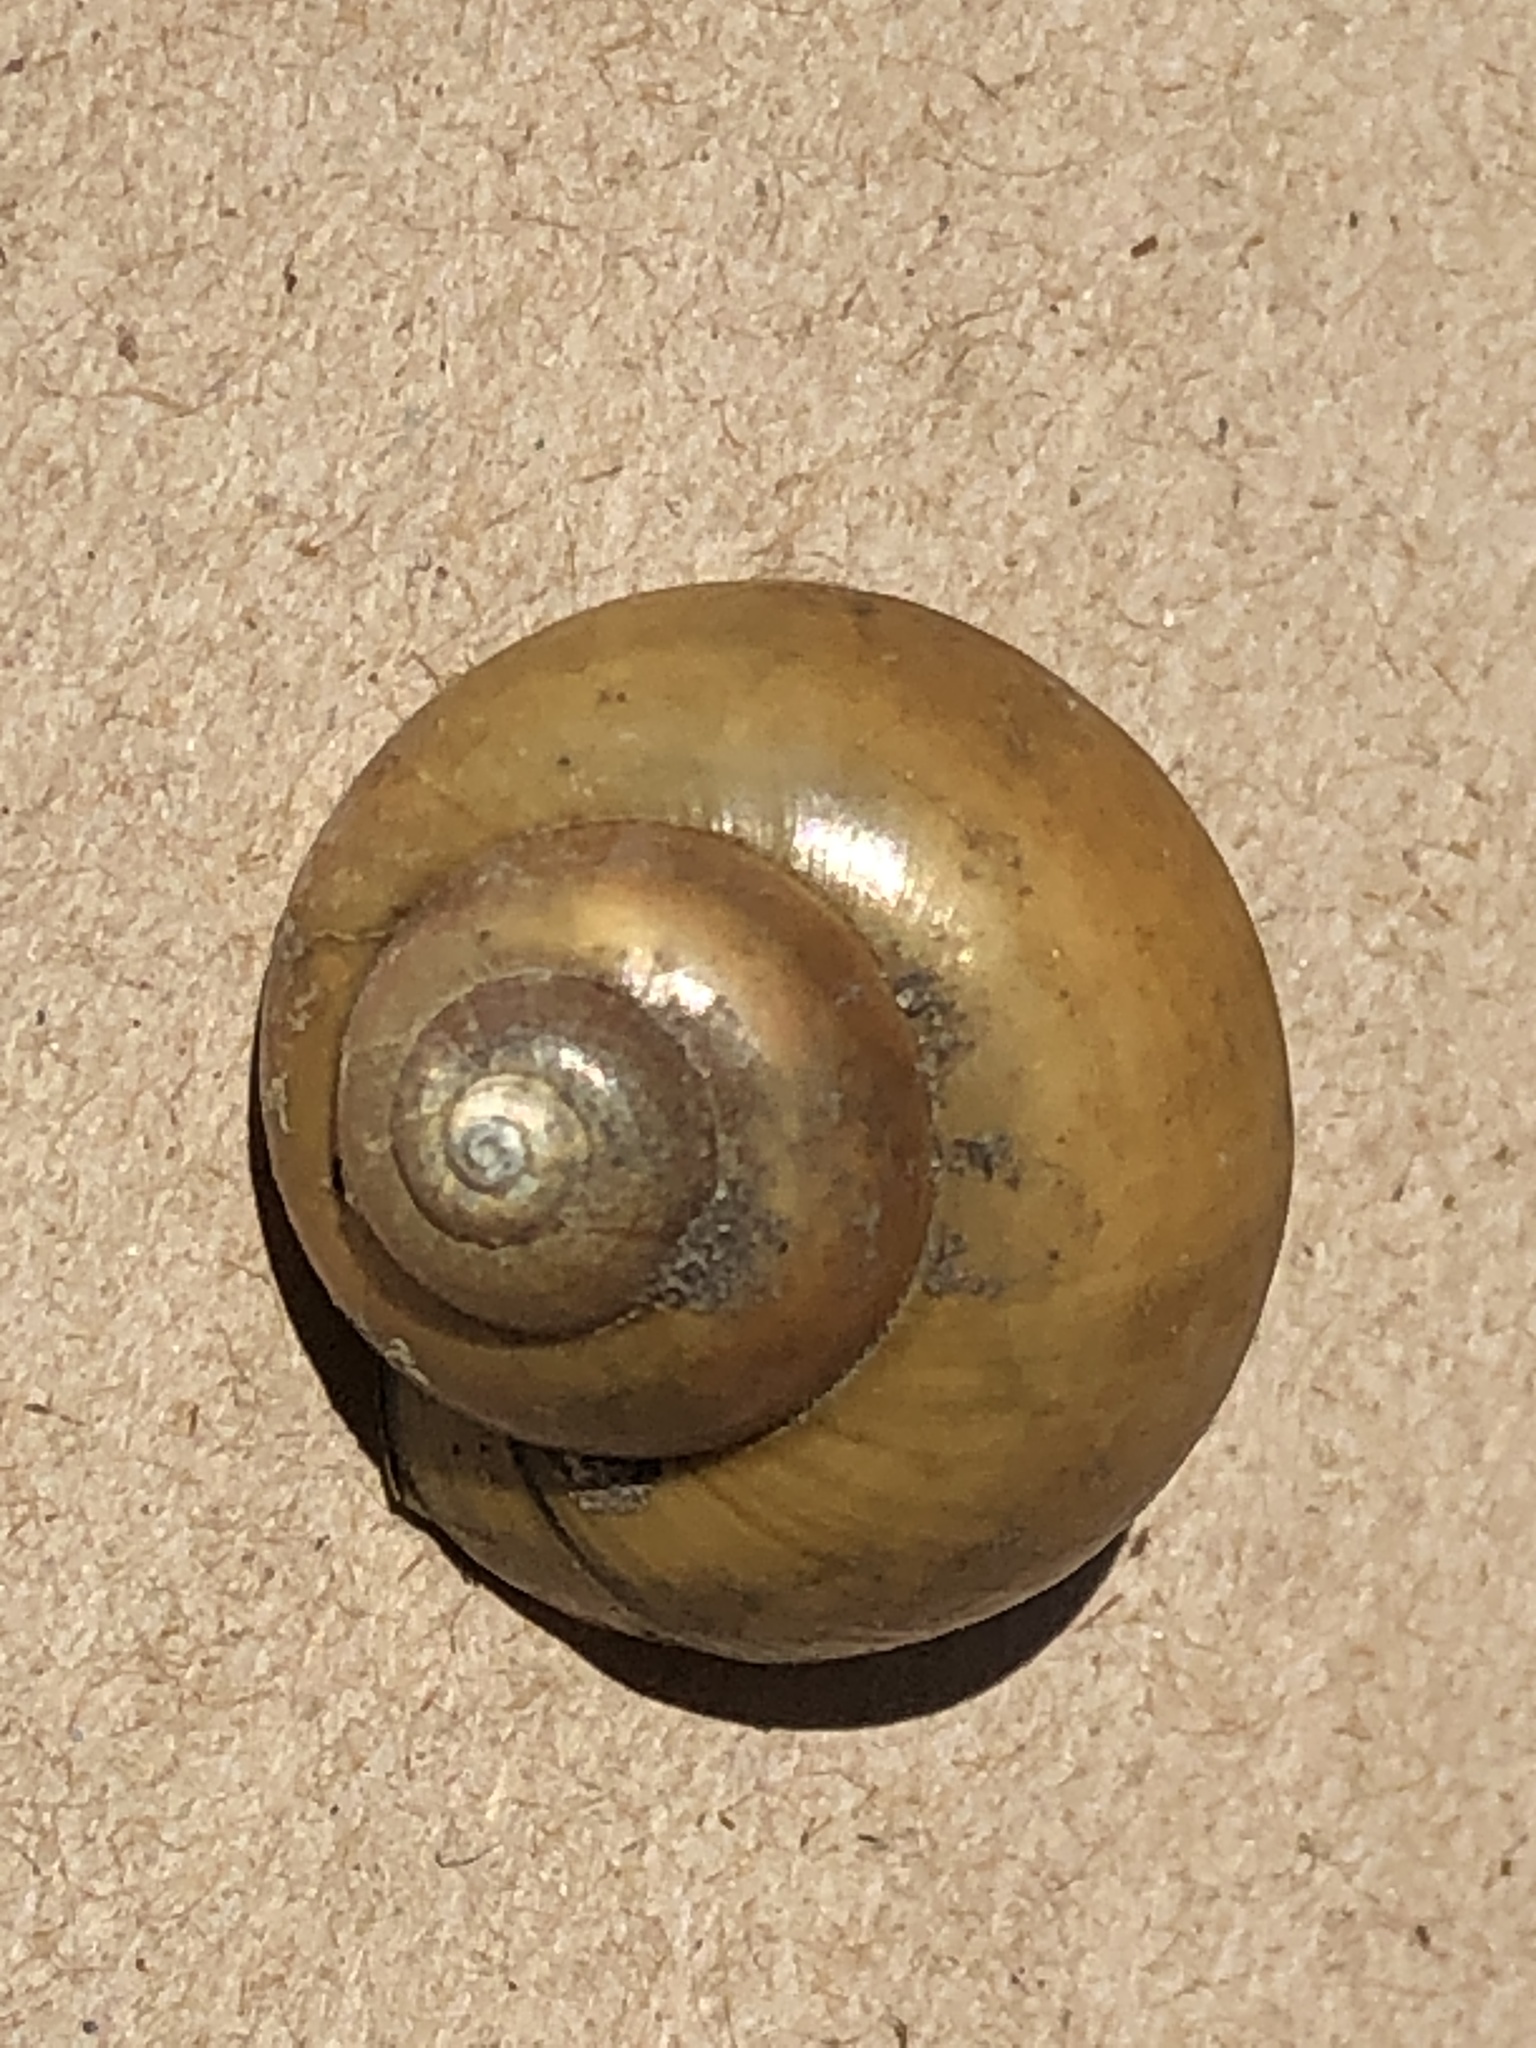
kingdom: Animalia
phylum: Mollusca
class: Gastropoda
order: Architaenioglossa
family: Viviparidae
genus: Cipangopaludina
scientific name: Cipangopaludina chinensis
